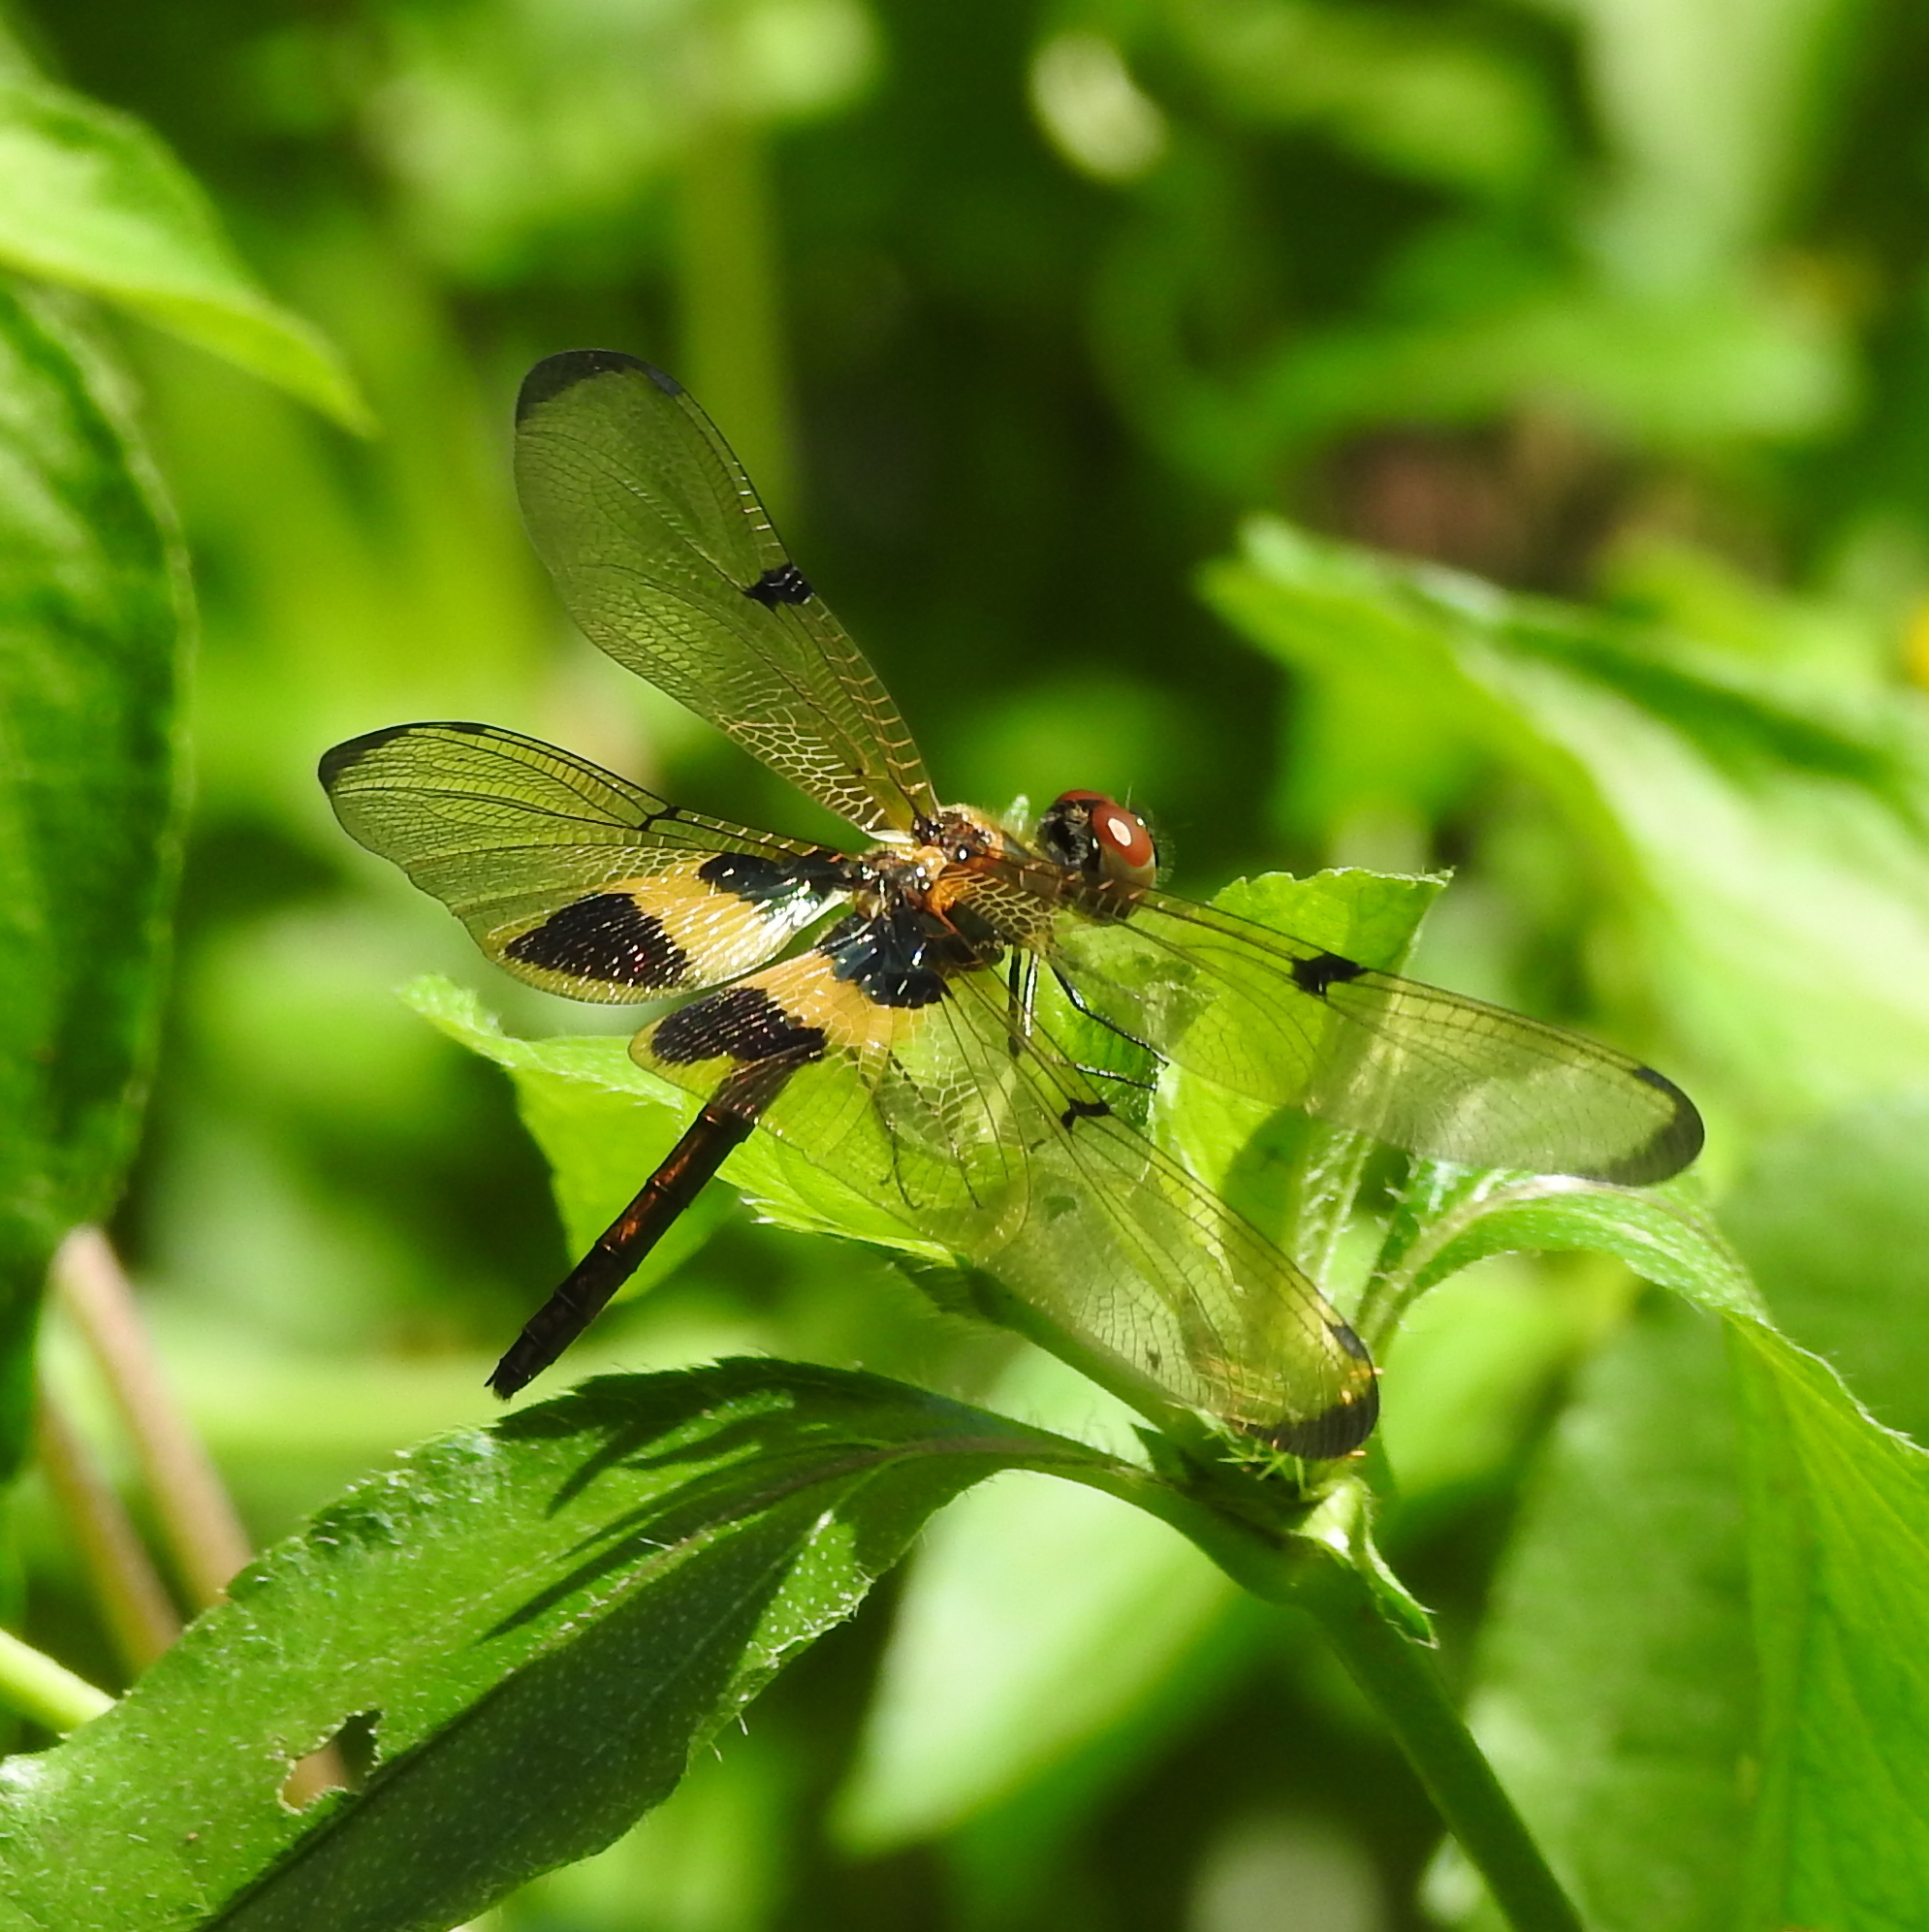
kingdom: Animalia
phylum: Arthropoda
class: Insecta
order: Odonata
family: Libellulidae
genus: Rhyothemis
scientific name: Rhyothemis phyllis
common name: Yellow-barred flutterer
